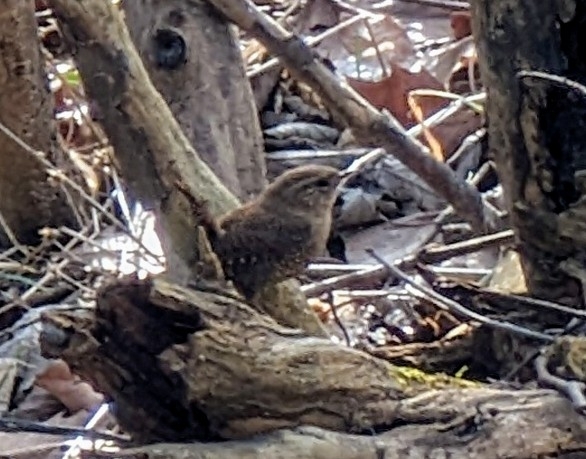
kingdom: Animalia
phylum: Chordata
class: Aves
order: Passeriformes
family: Troglodytidae
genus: Troglodytes
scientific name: Troglodytes hiemalis
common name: Winter wren
